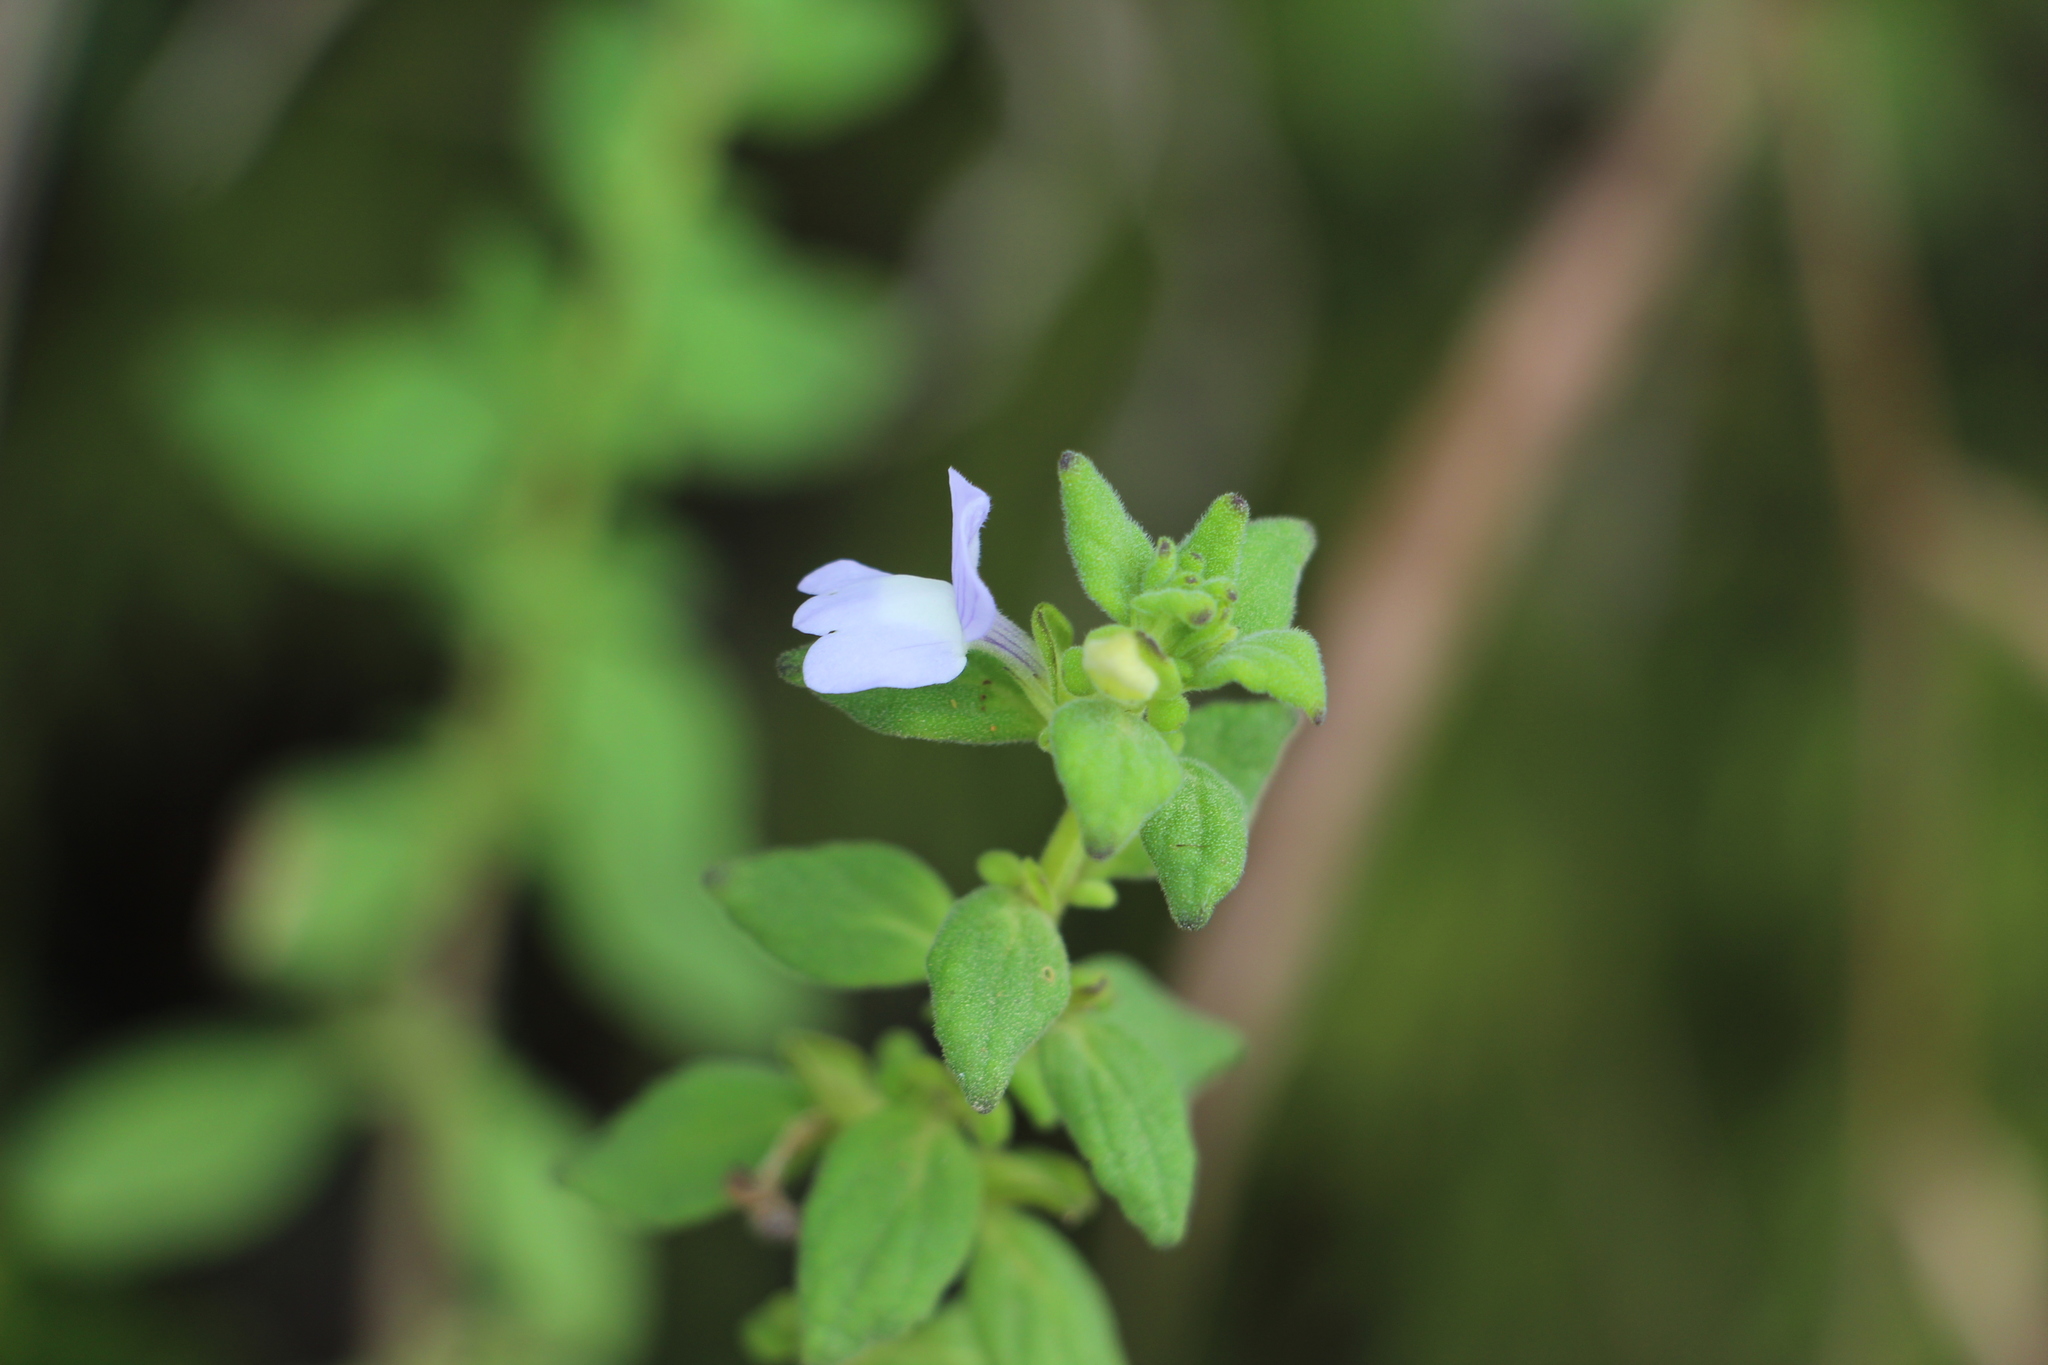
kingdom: Plantae
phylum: Tracheophyta
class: Magnoliopsida
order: Lamiales
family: Plantaginaceae
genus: Matourea
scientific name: Matourea erecta
